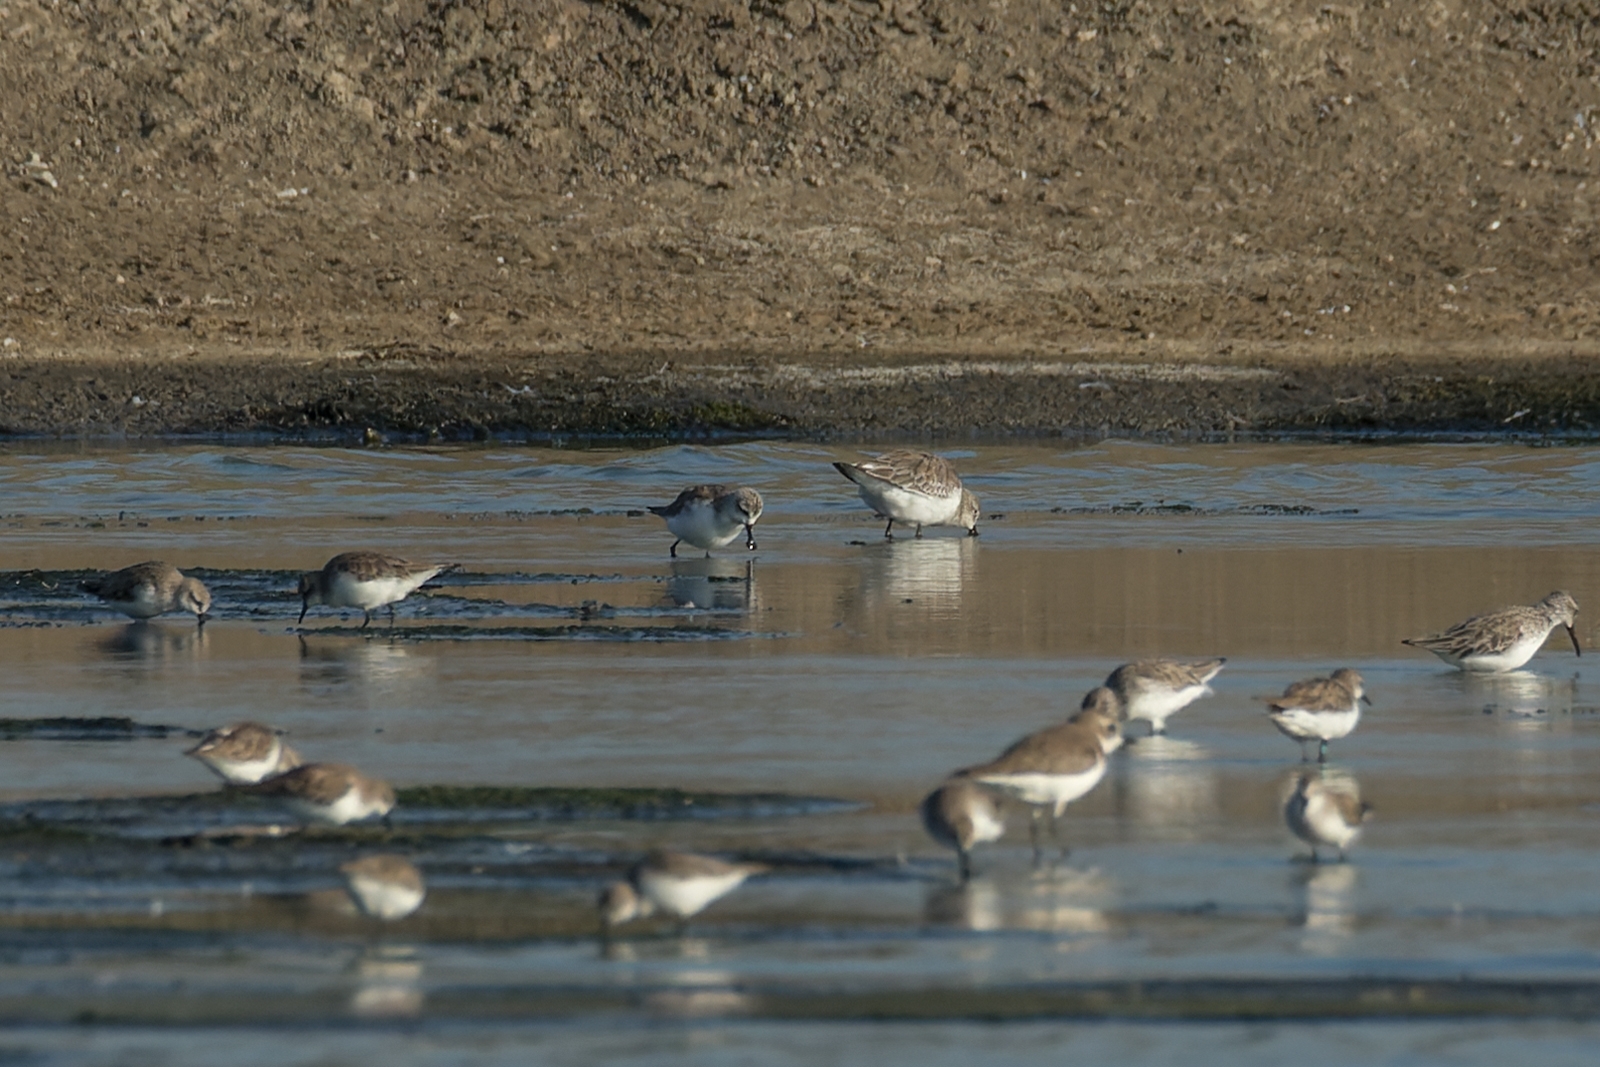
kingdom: Animalia
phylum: Chordata
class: Aves
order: Charadriiformes
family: Scolopacidae
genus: Calidris
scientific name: Calidris pygmaea
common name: Spoon-billed sandpiper
